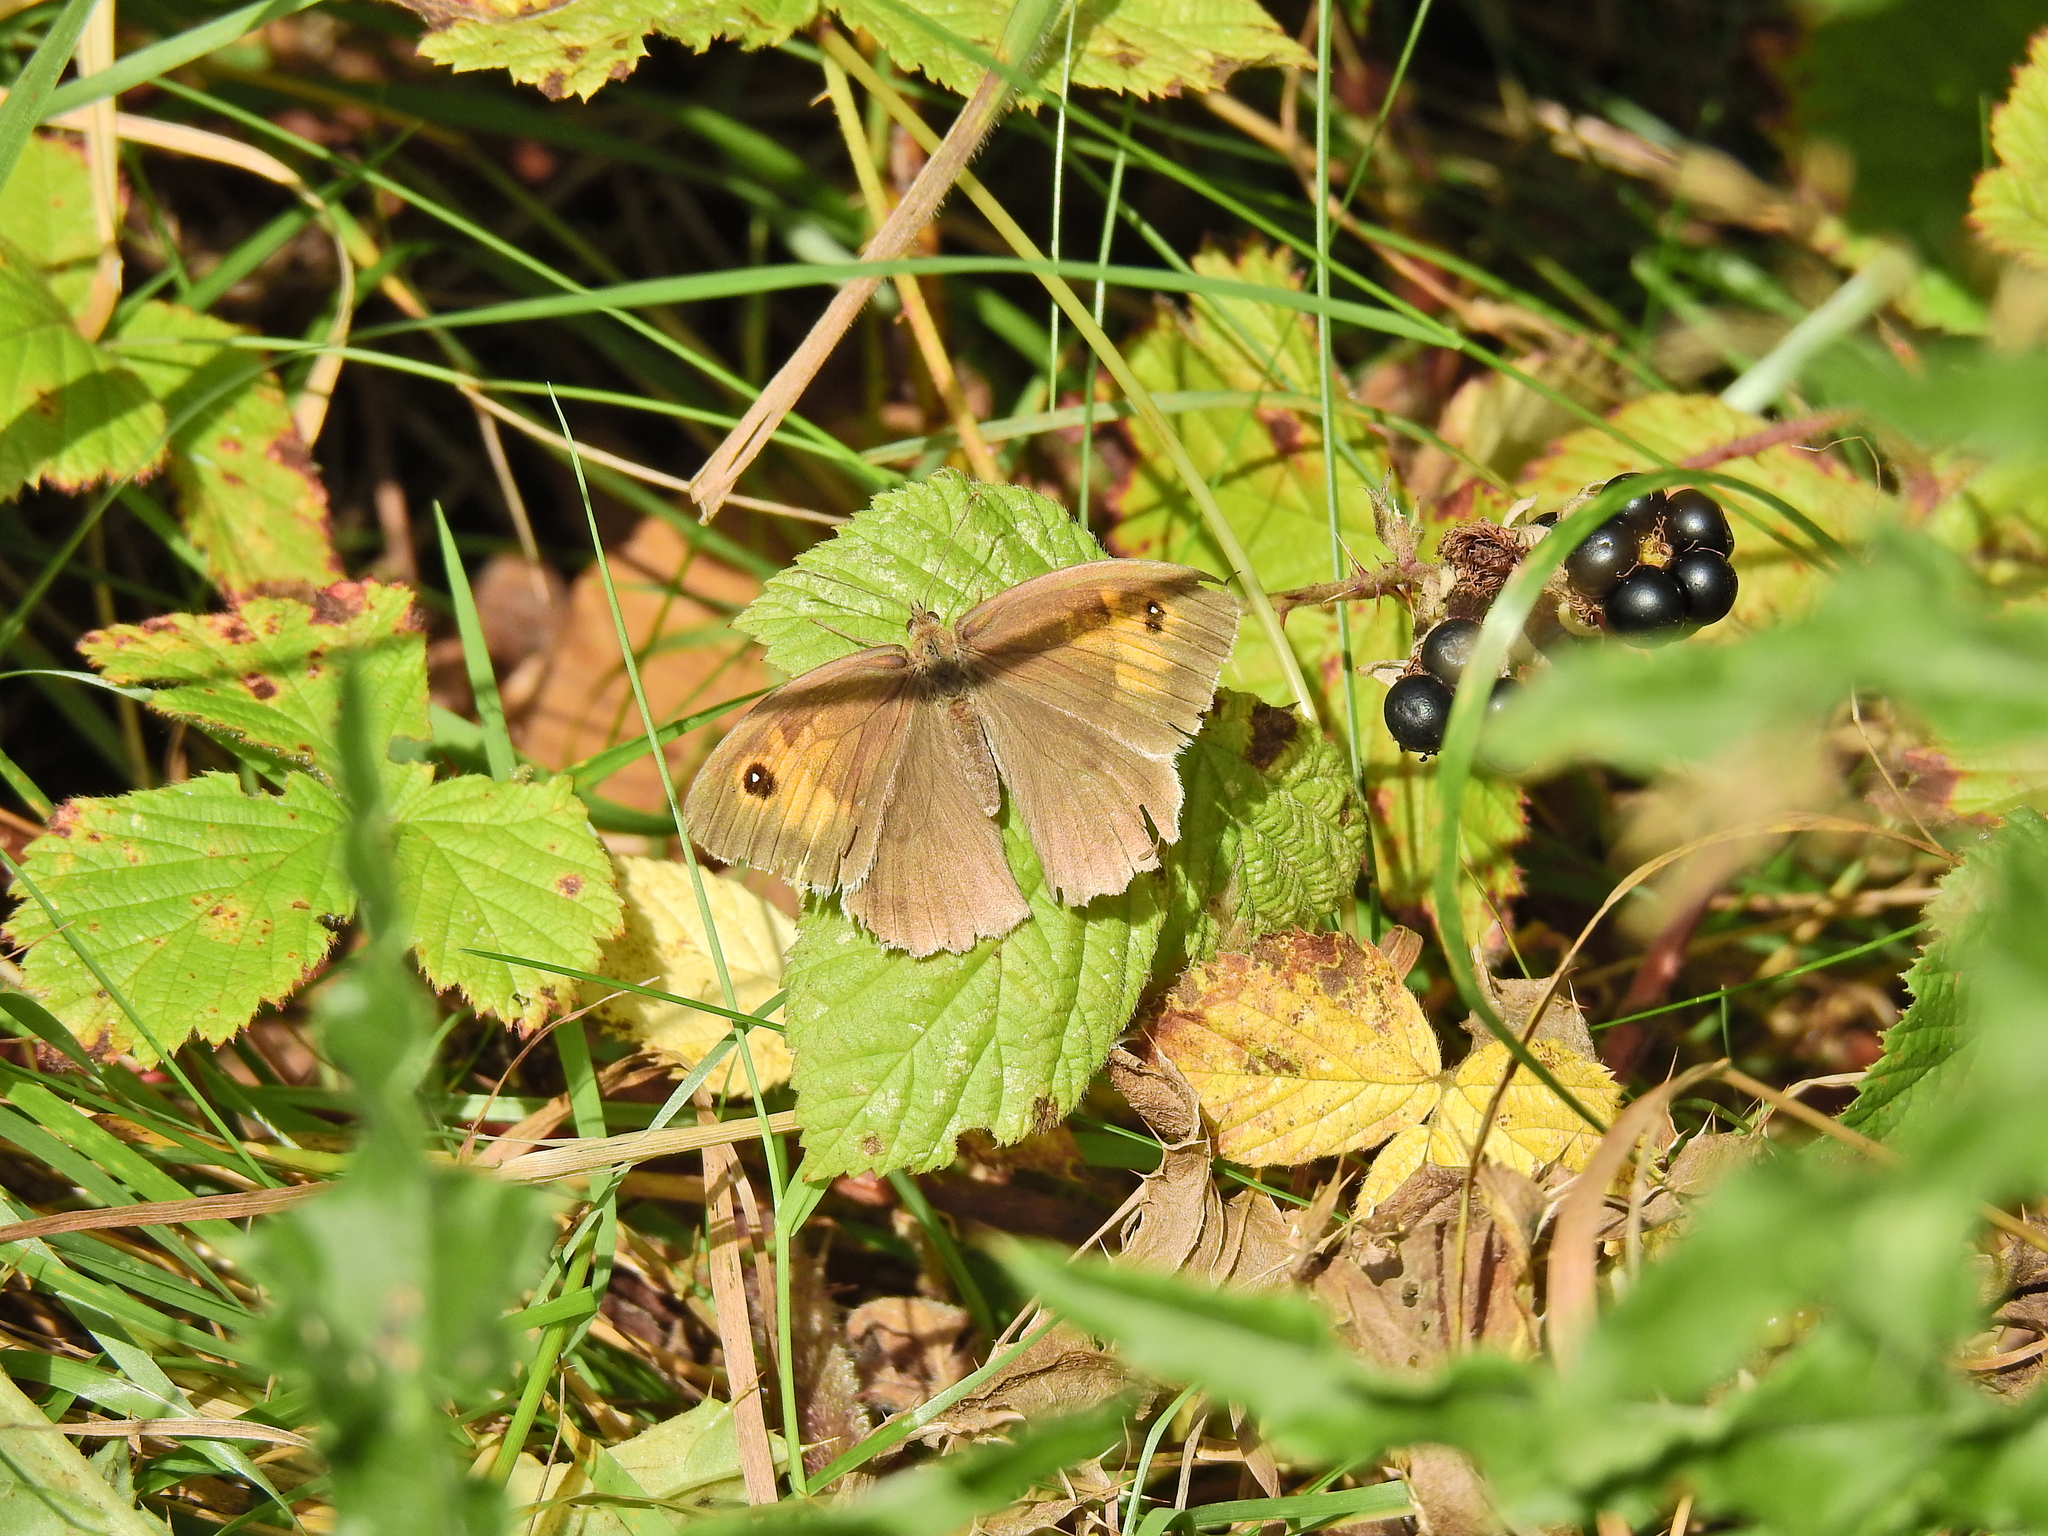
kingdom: Animalia
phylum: Arthropoda
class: Insecta
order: Lepidoptera
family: Nymphalidae
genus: Maniola
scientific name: Maniola jurtina
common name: Meadow brown
